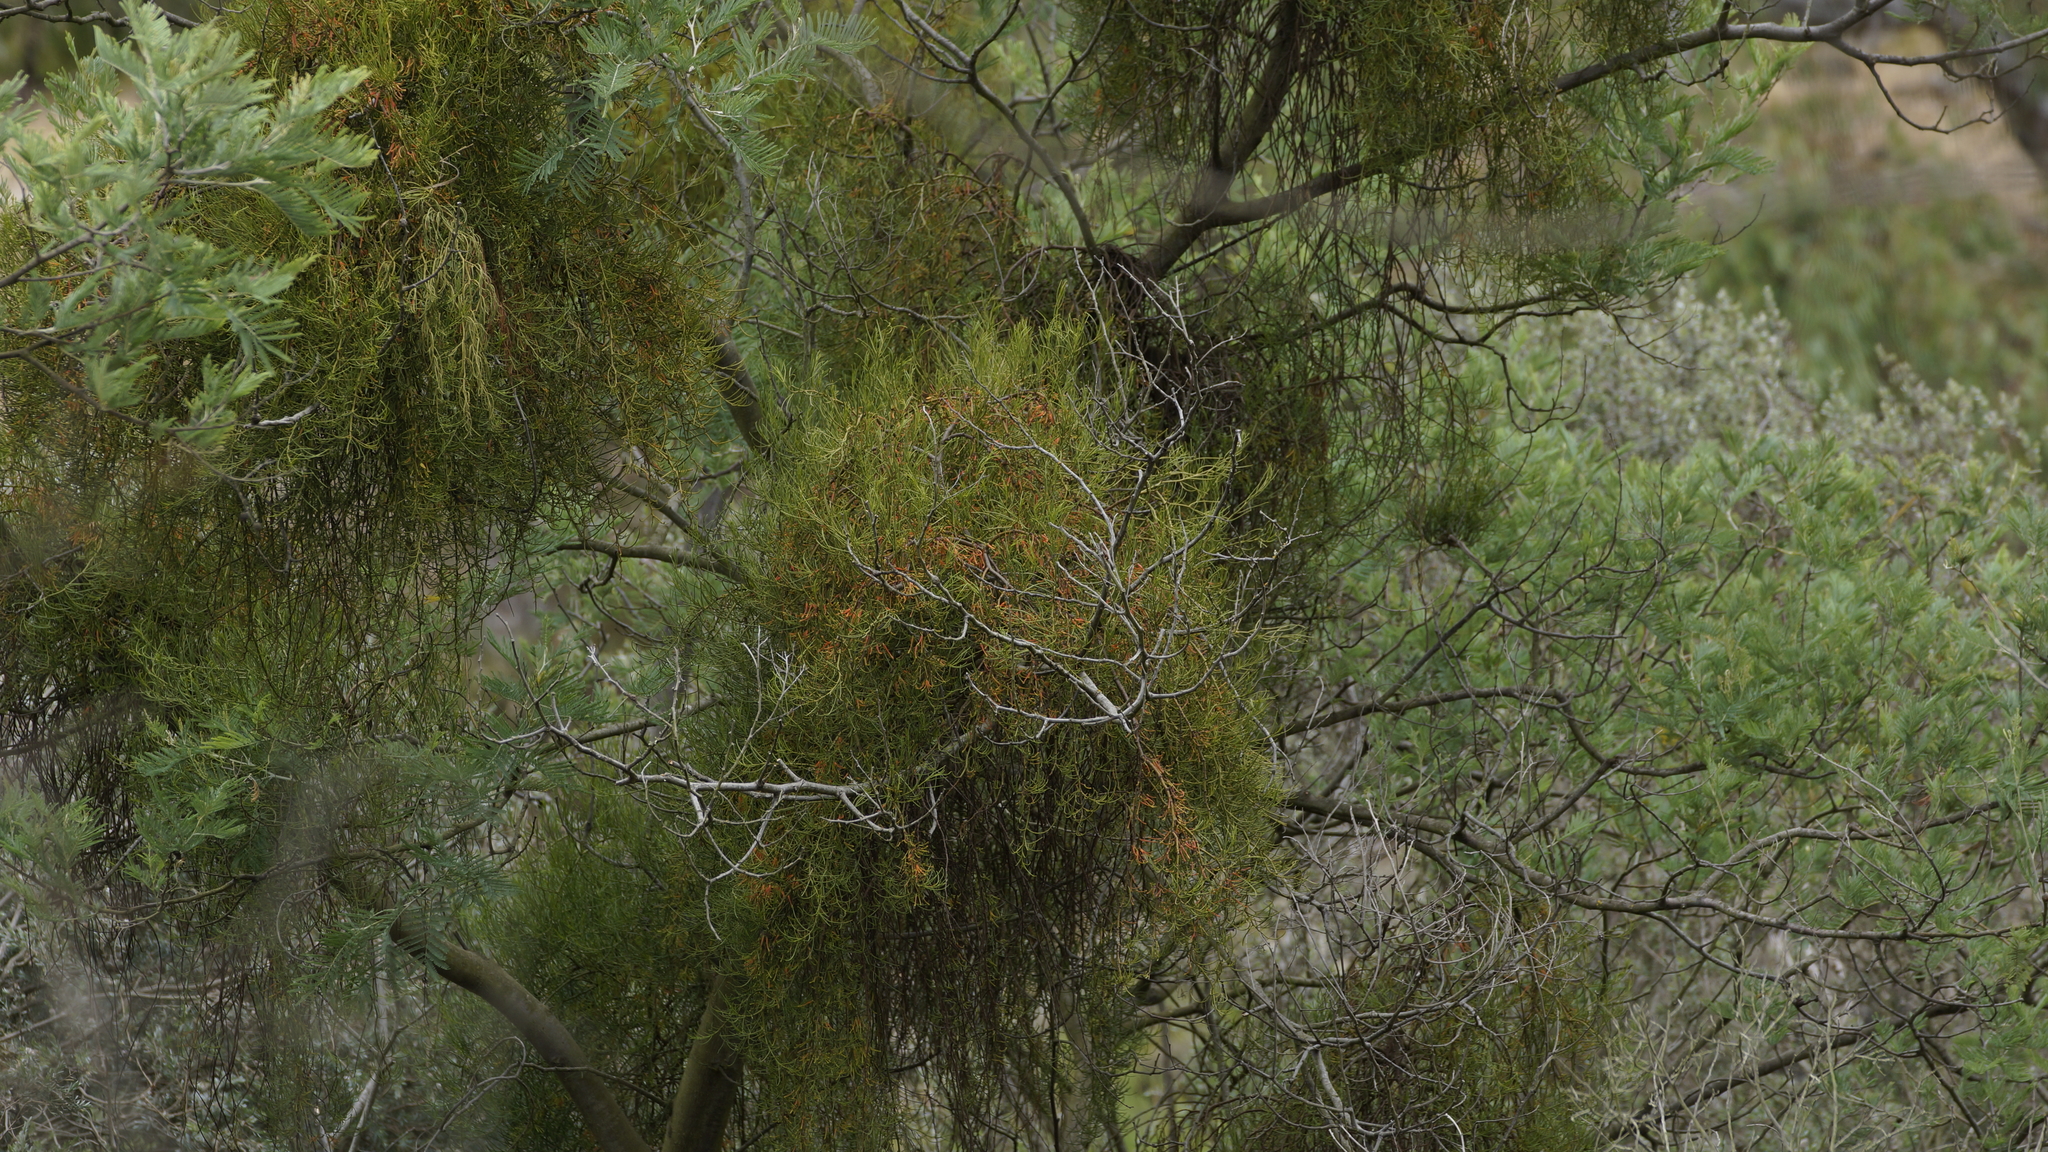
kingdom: Plantae
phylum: Tracheophyta
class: Magnoliopsida
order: Santalales
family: Loranthaceae
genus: Amyema
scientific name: Amyema preissii
